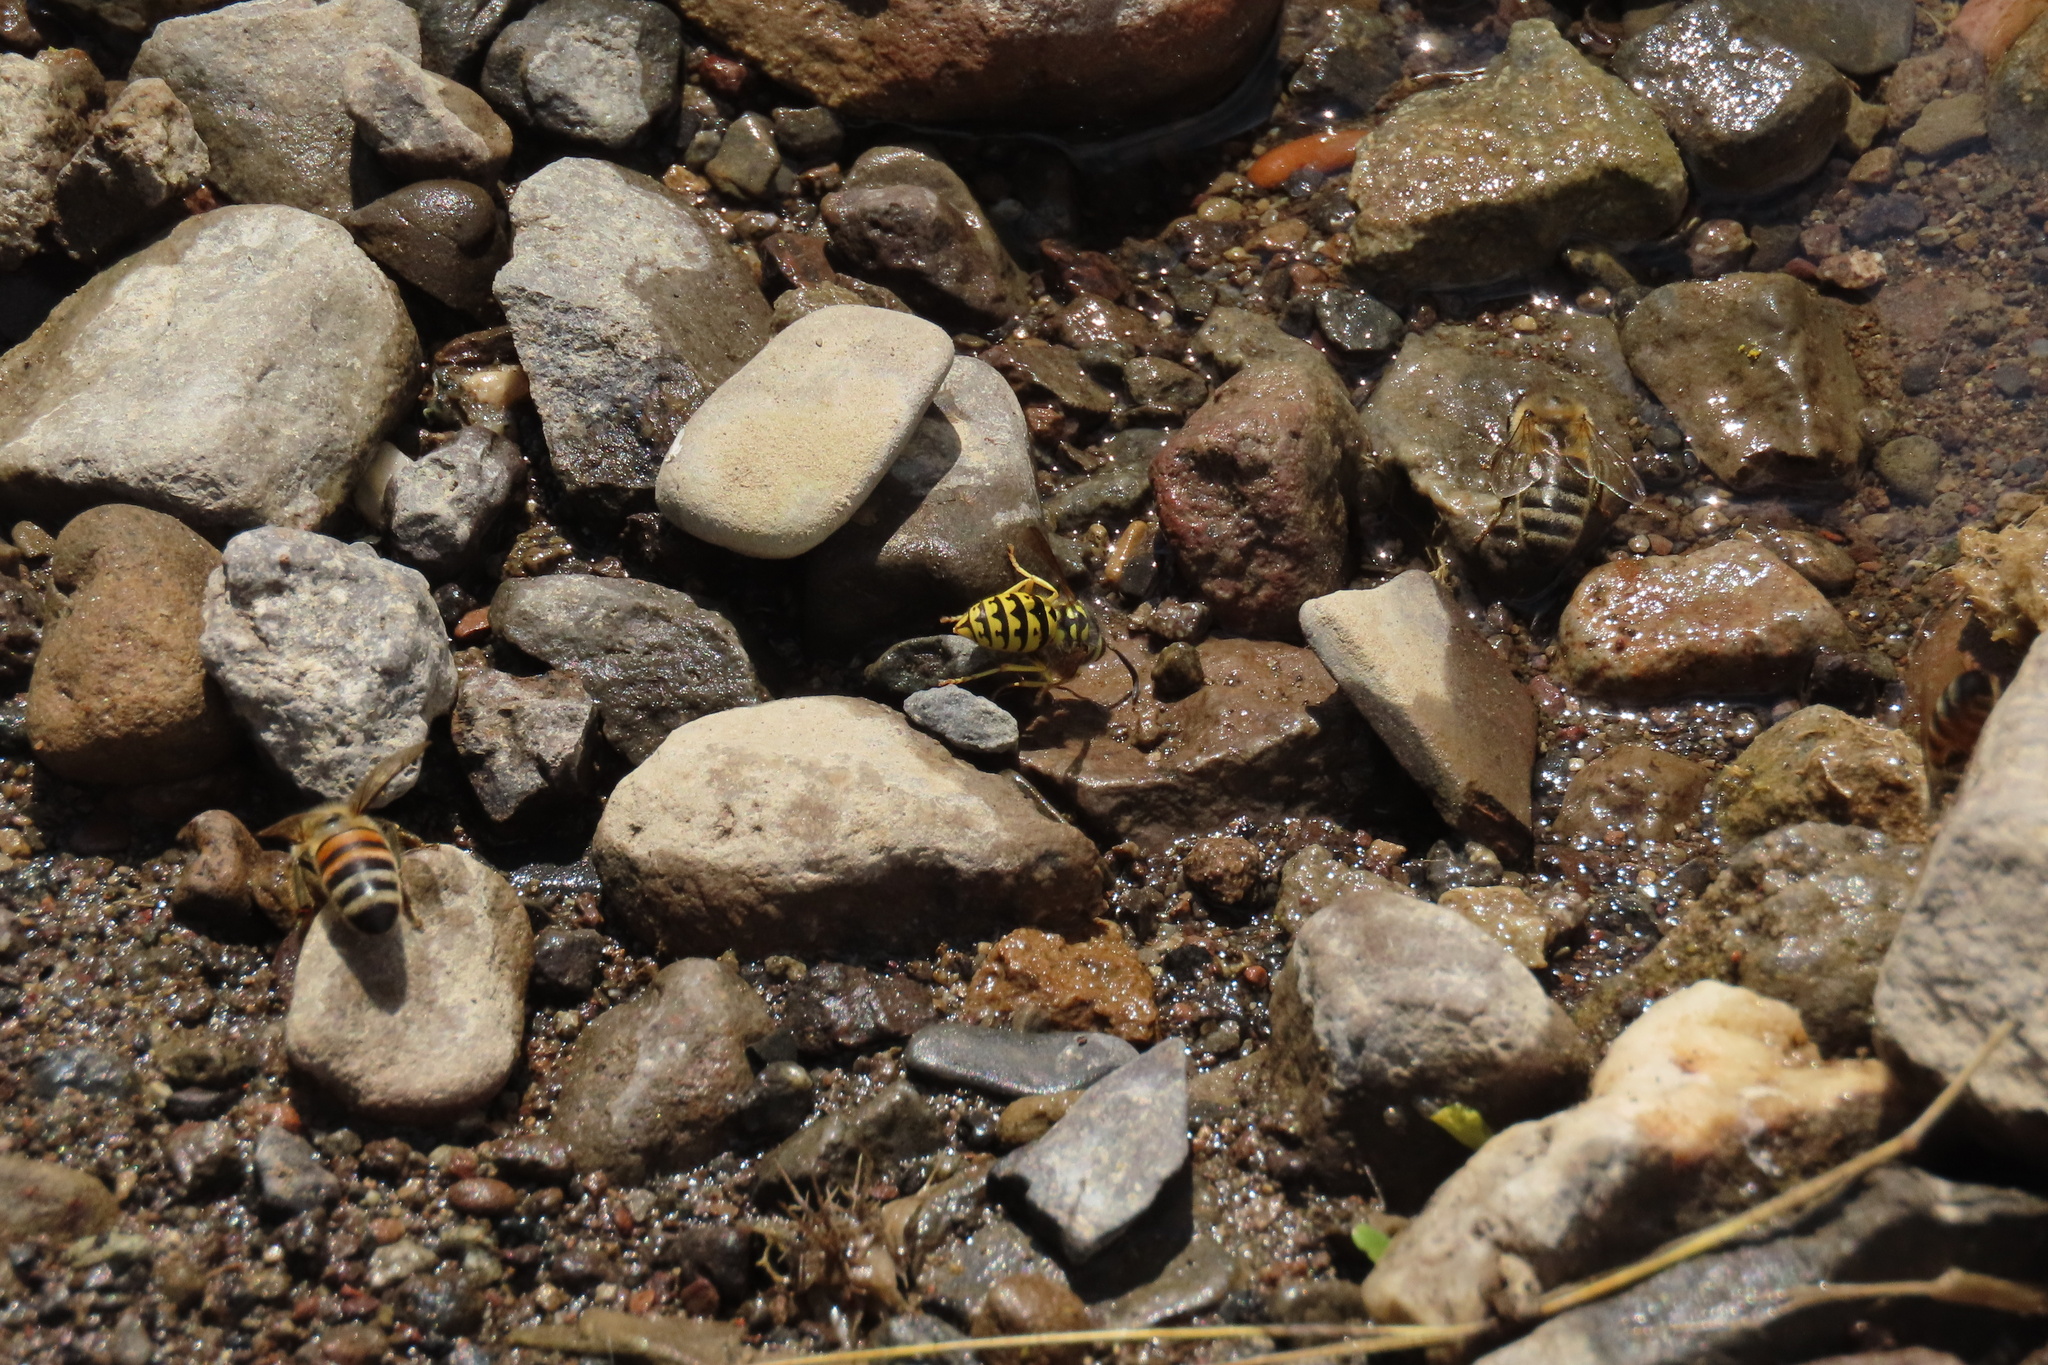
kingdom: Animalia
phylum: Arthropoda
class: Insecta
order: Hymenoptera
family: Vespidae
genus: Vespula
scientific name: Vespula pensylvanica
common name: Western yellowjacket
